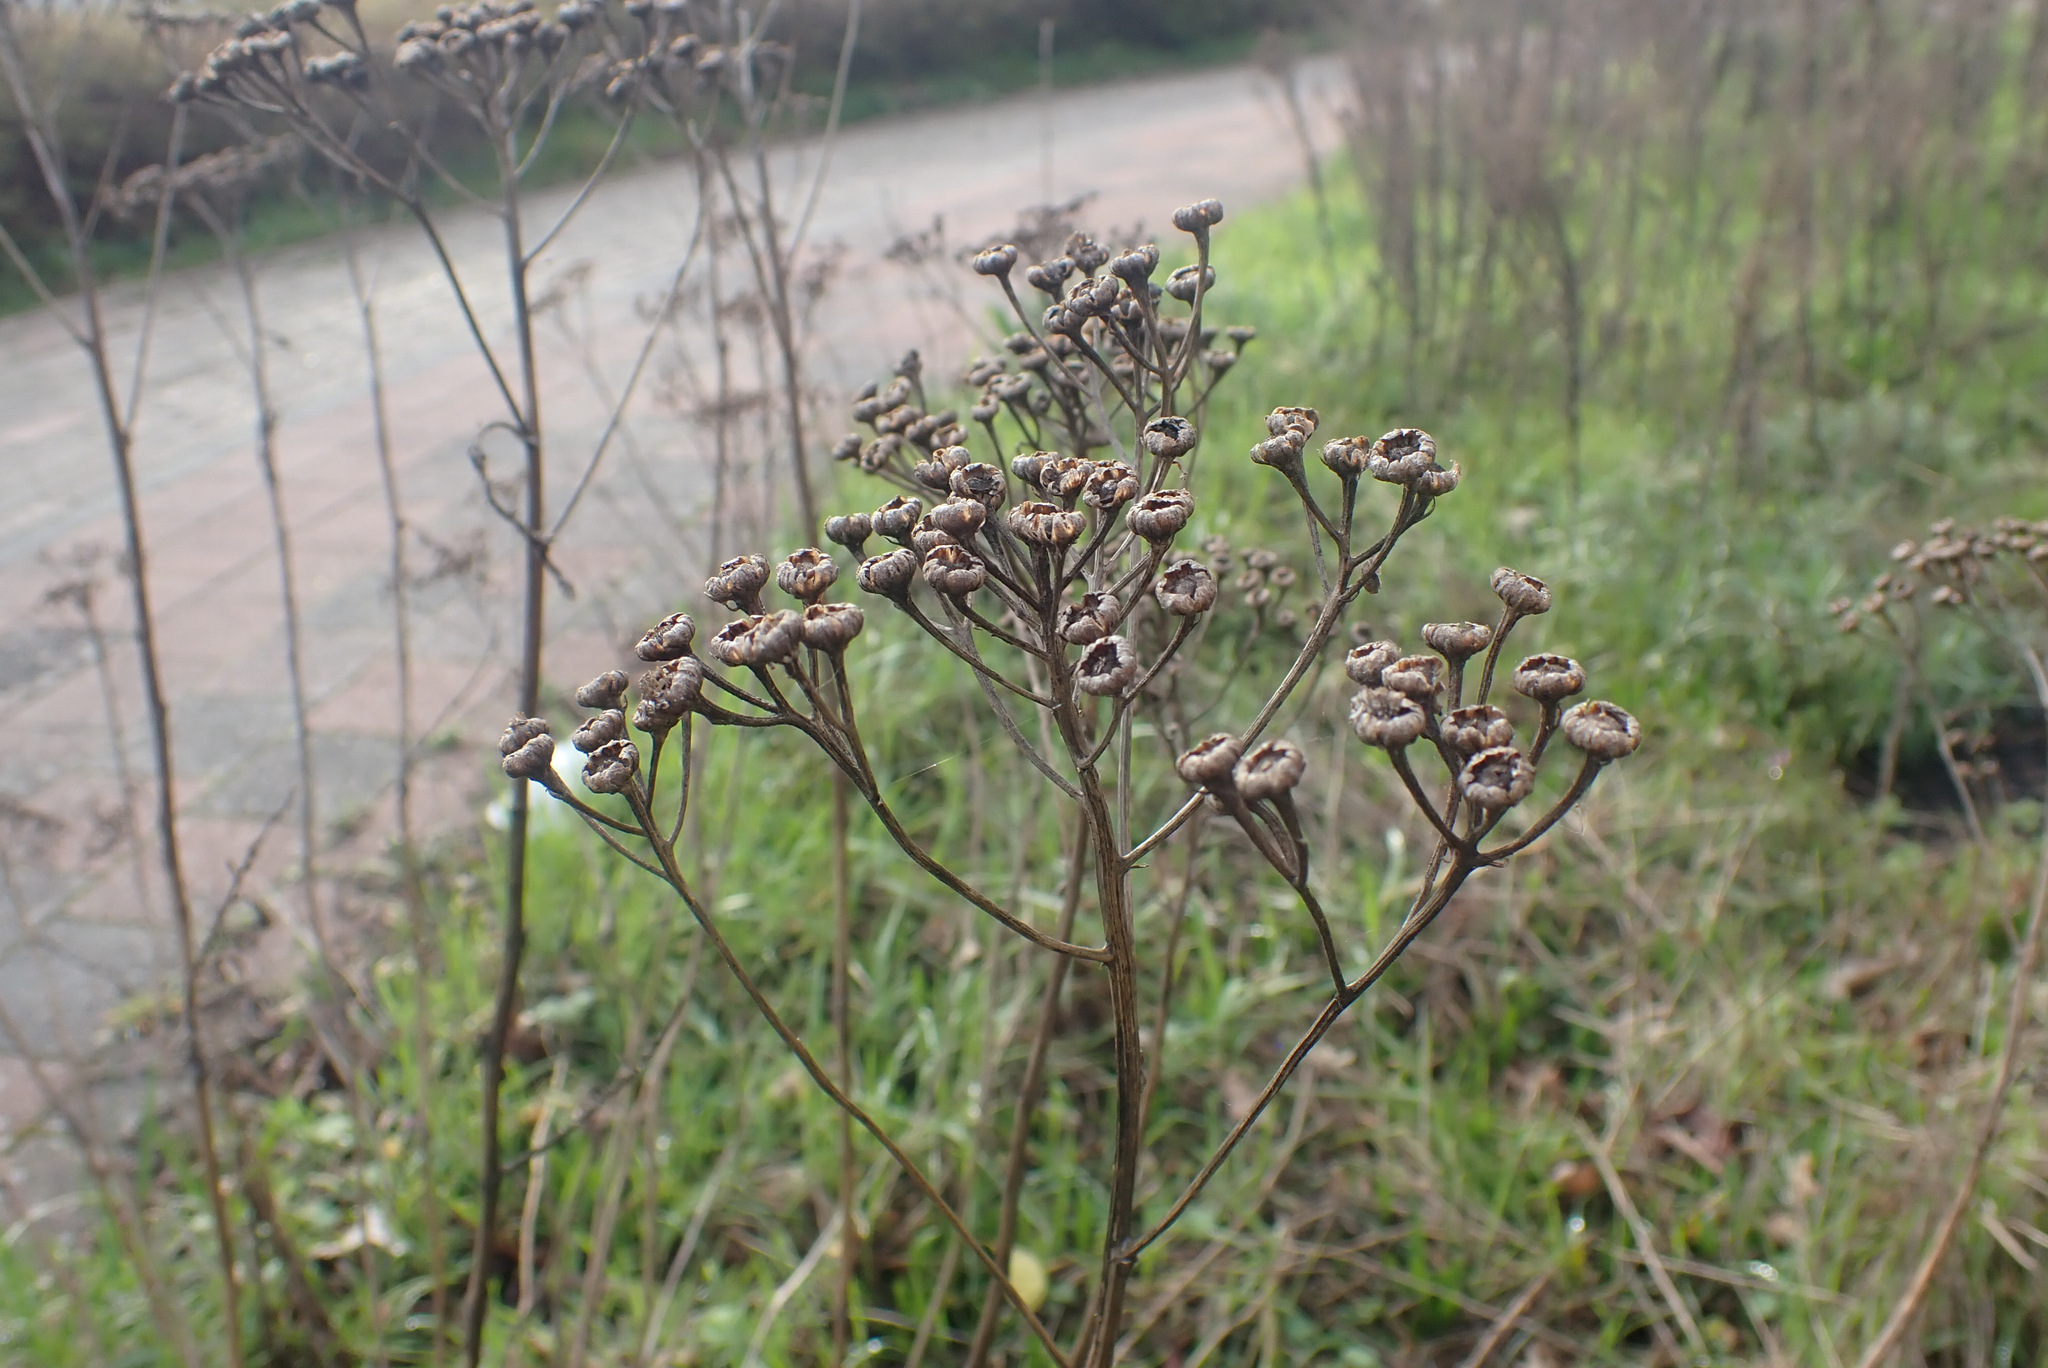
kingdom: Plantae
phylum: Tracheophyta
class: Magnoliopsida
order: Asterales
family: Asteraceae
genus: Tanacetum
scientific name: Tanacetum vulgare
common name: Common tansy
